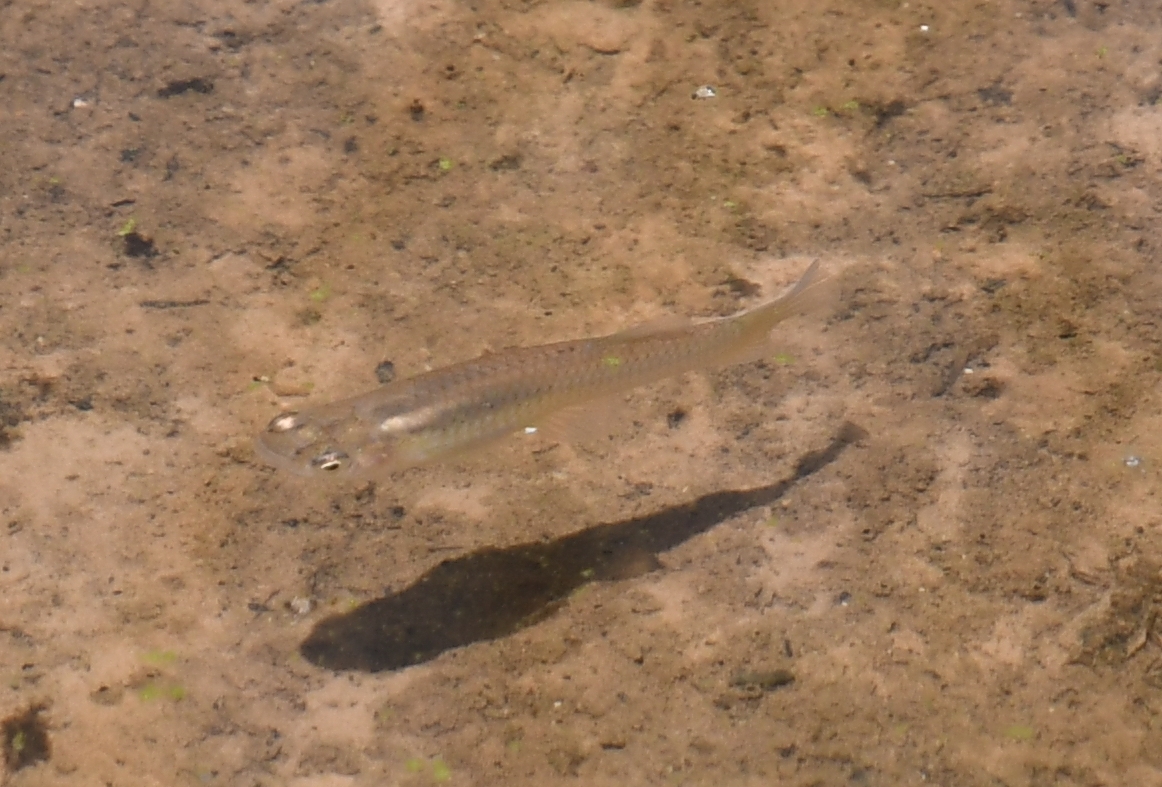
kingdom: Animalia
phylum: Chordata
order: Cyprinodontiformes
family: Poeciliidae
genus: Gambusia
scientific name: Gambusia affinis
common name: Mosquitofish
